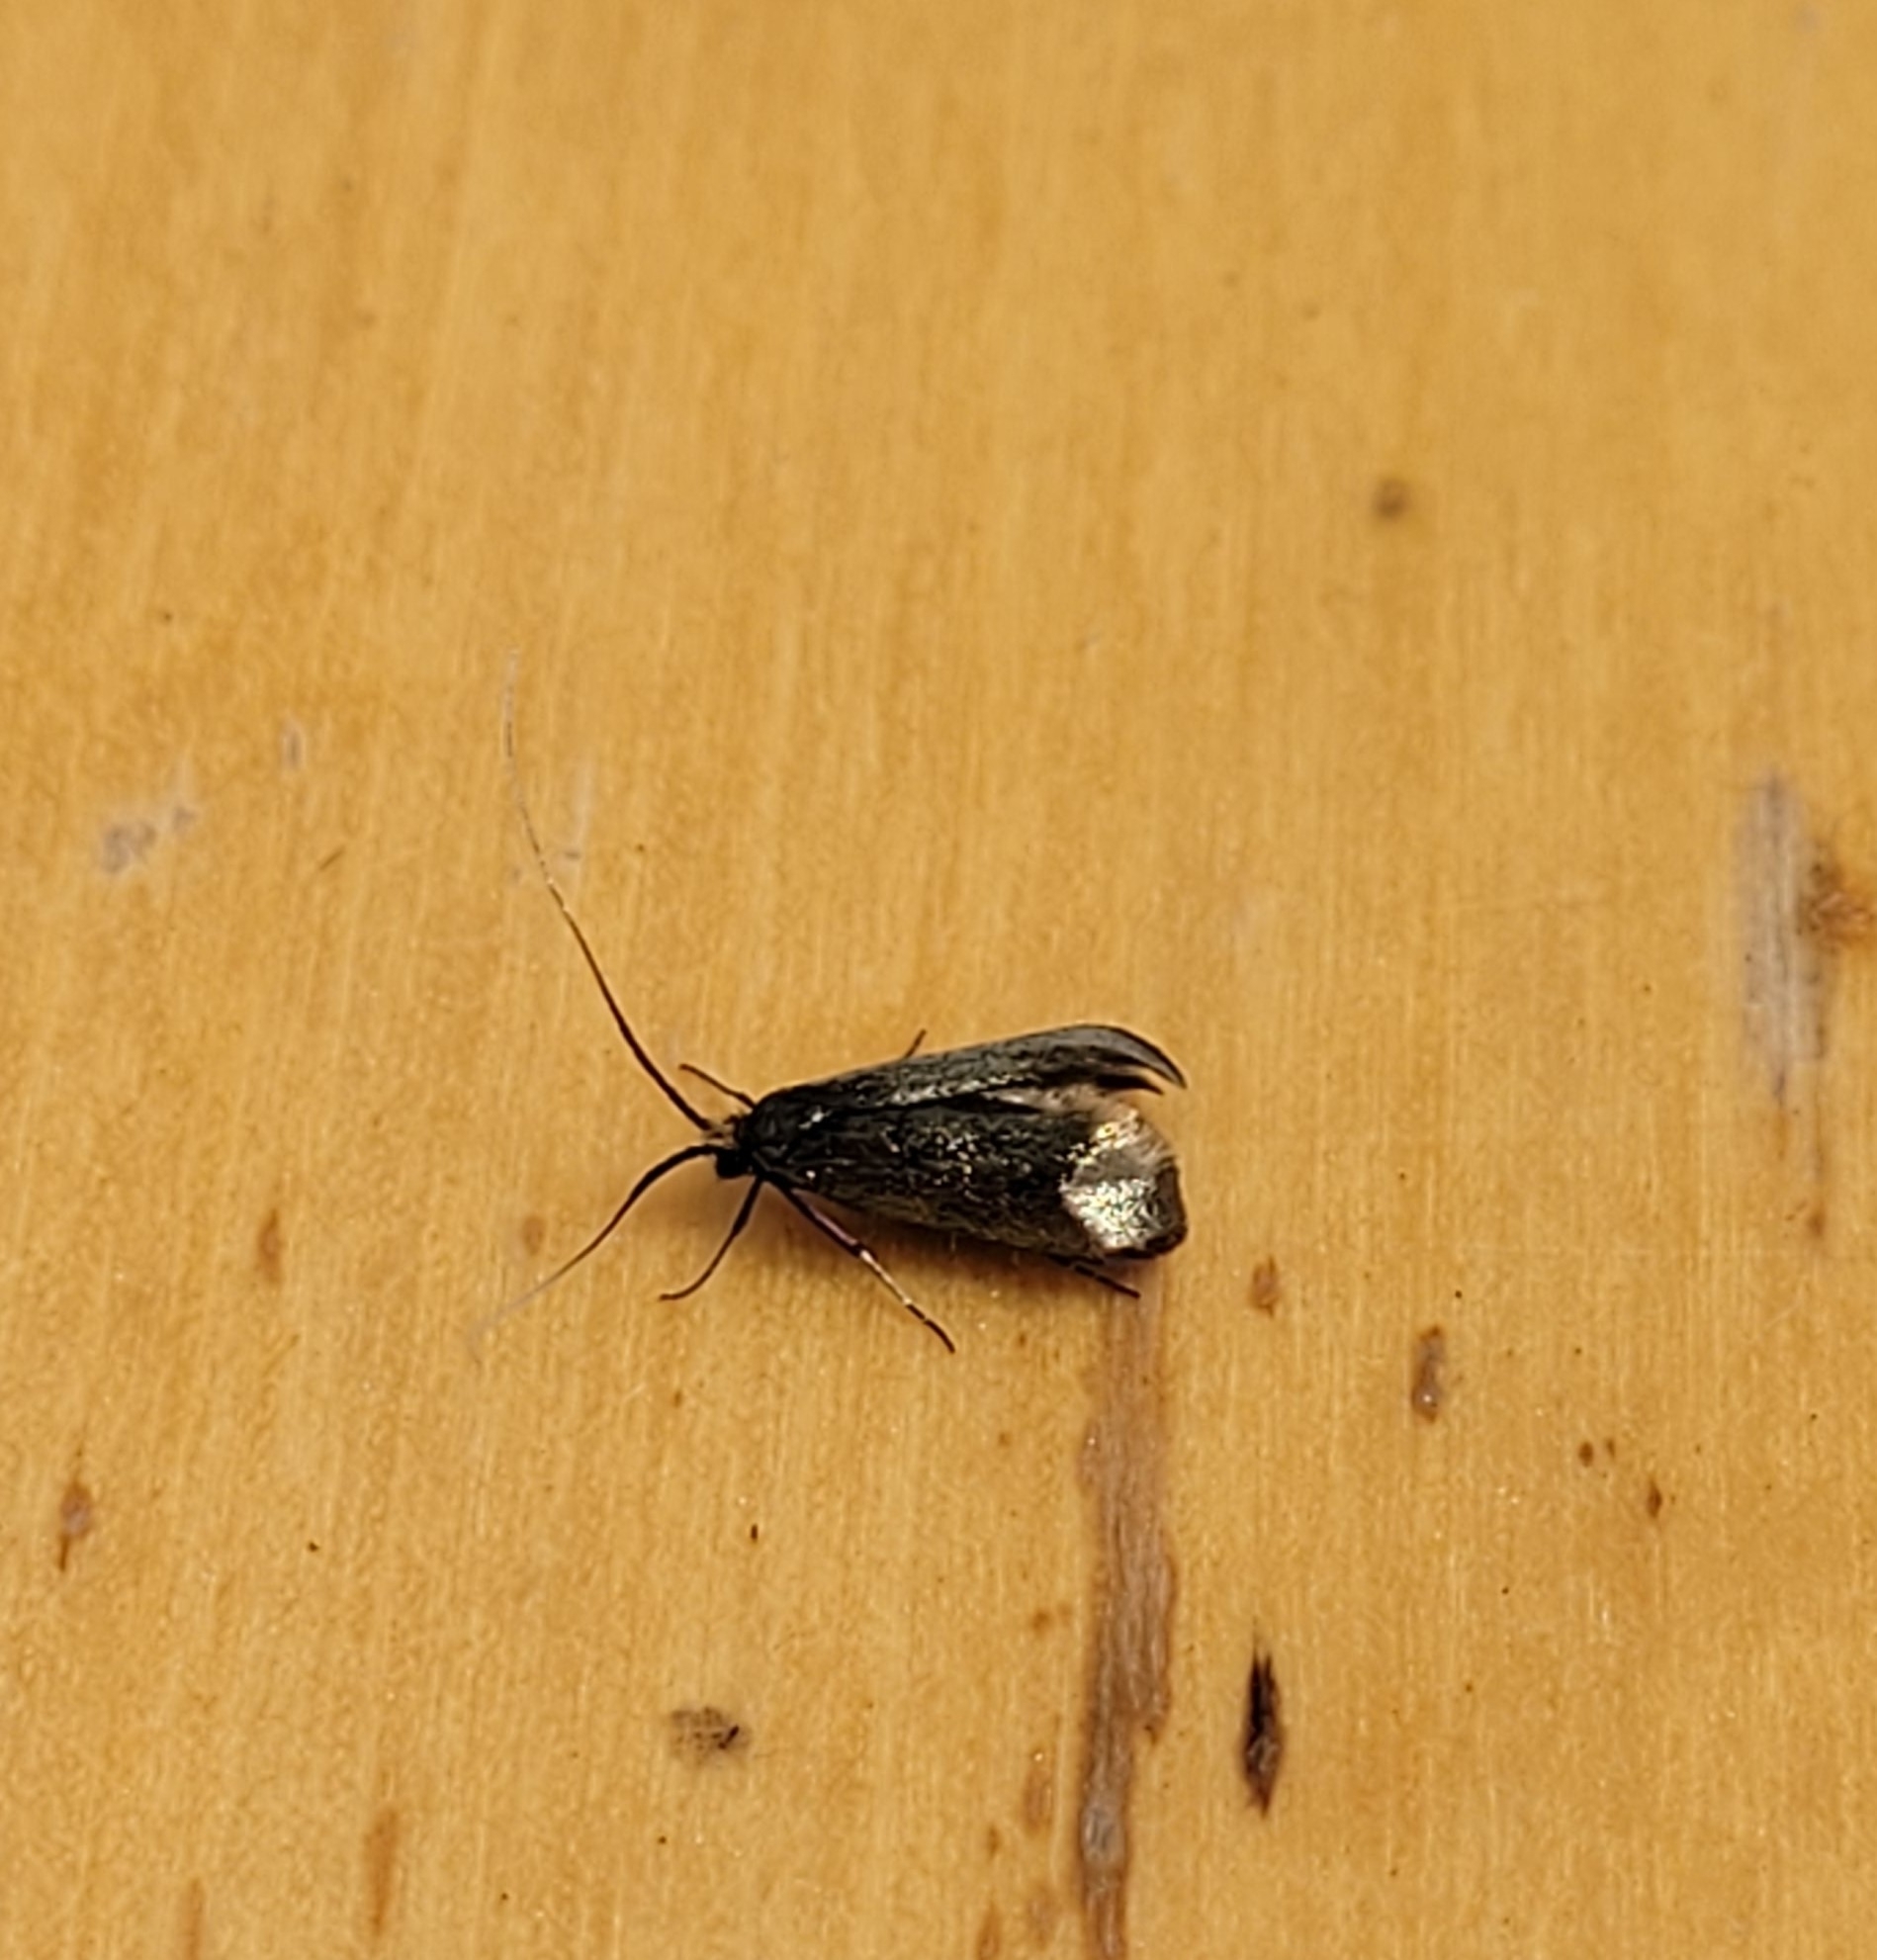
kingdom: Animalia
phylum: Arthropoda
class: Insecta
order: Lepidoptera
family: Adelidae
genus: Adela
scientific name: Adela viridella
